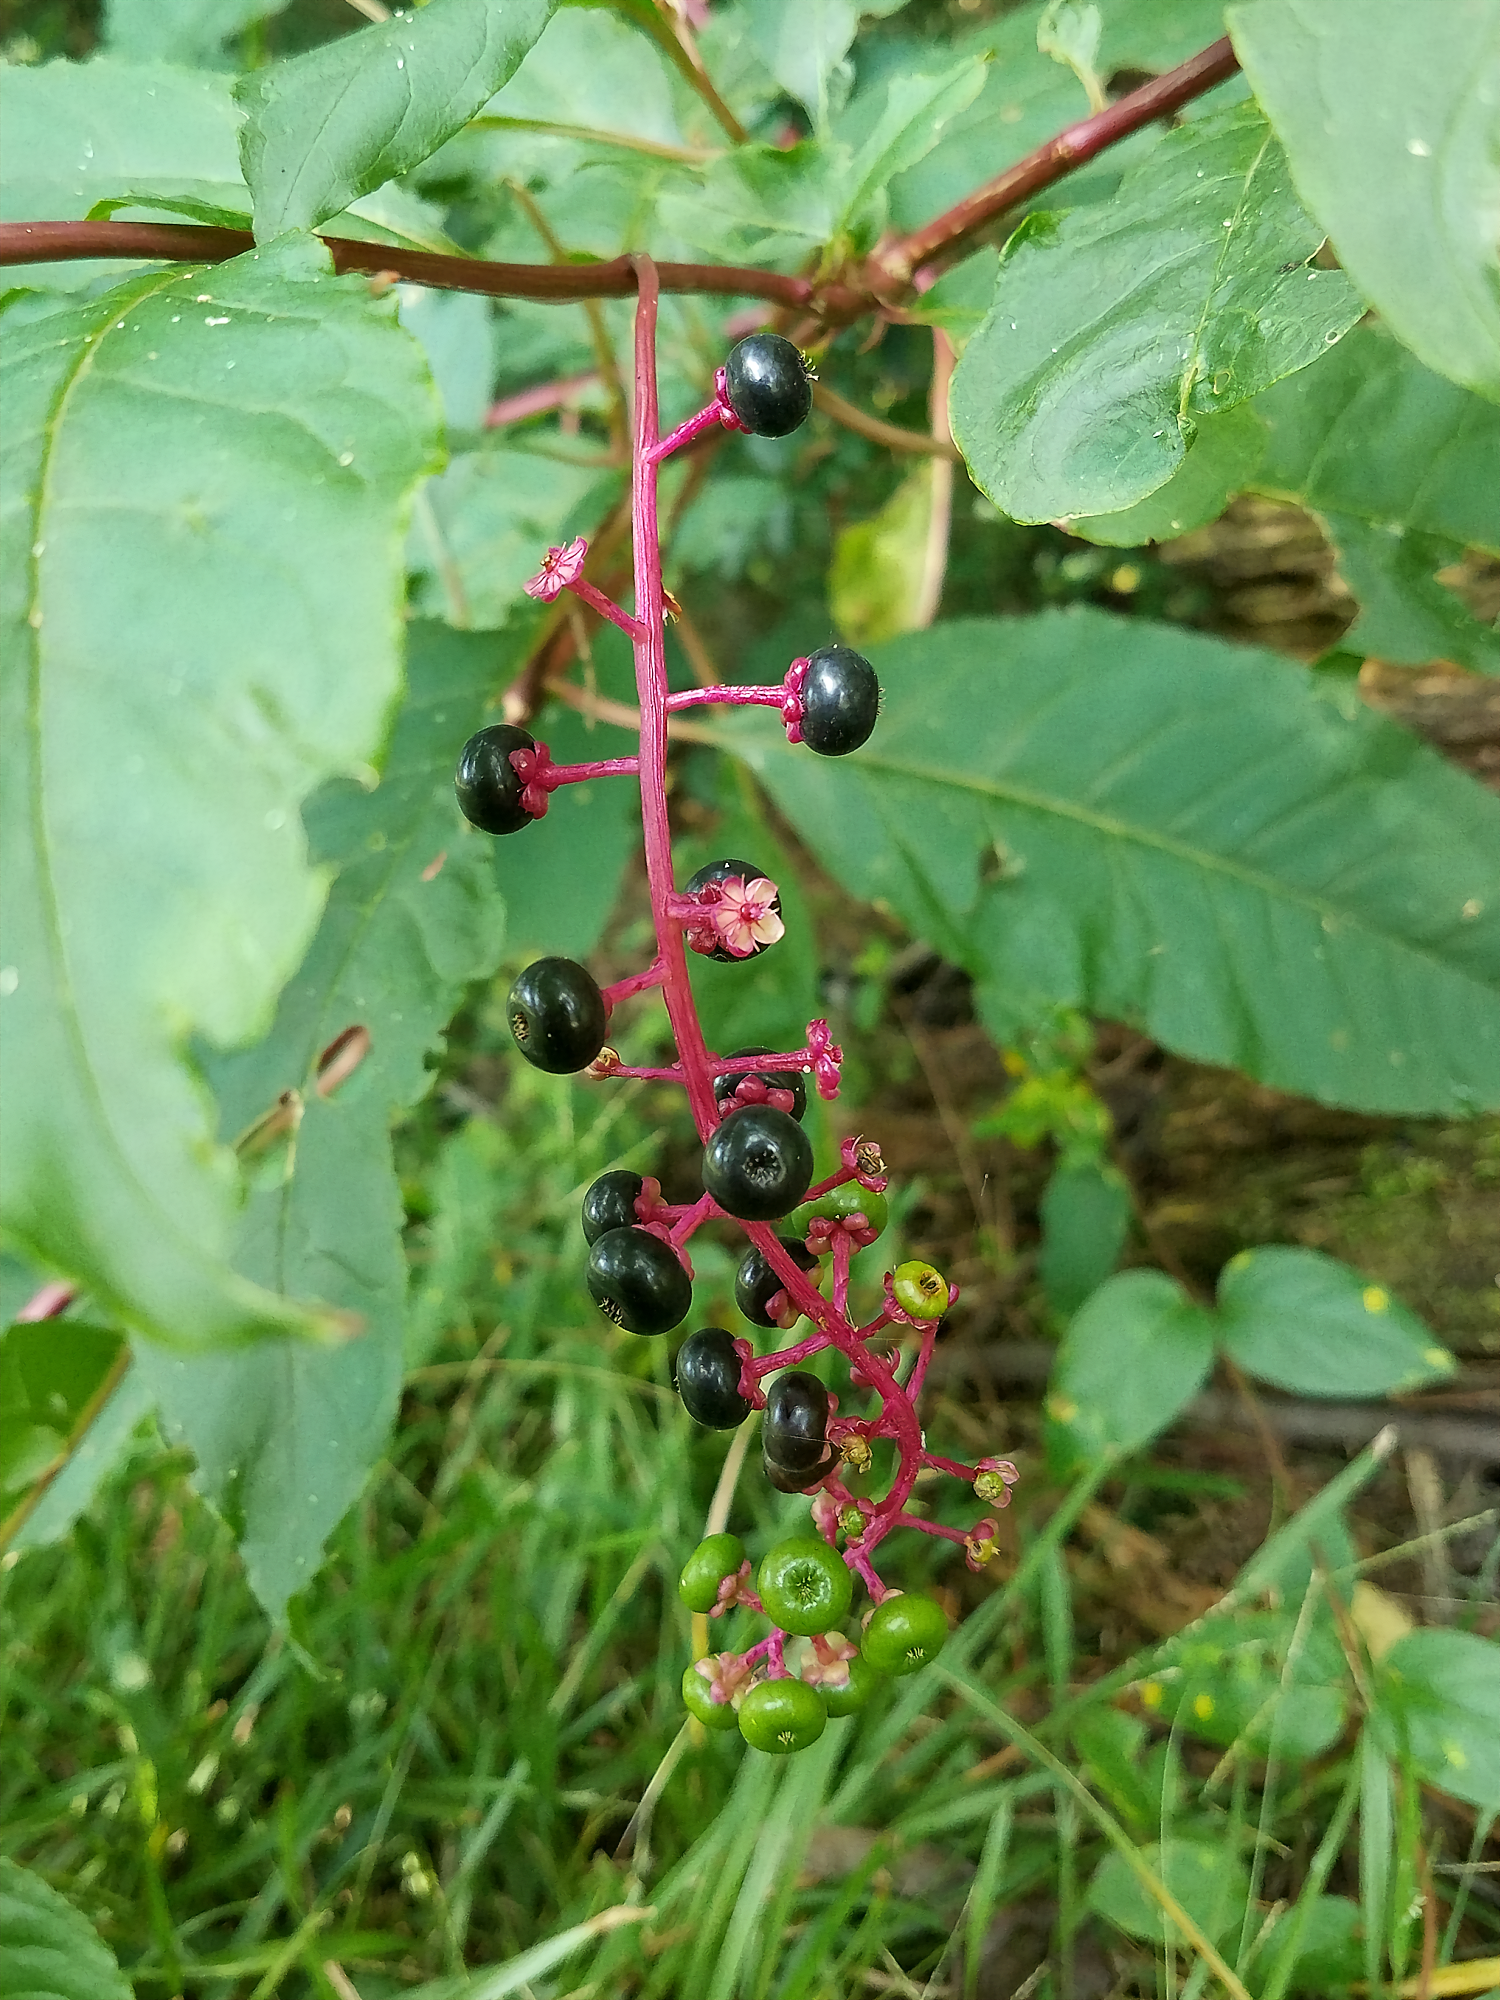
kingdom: Plantae
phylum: Tracheophyta
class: Magnoliopsida
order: Caryophyllales
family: Phytolaccaceae
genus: Phytolacca
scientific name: Phytolacca americana
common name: American pokeweed
